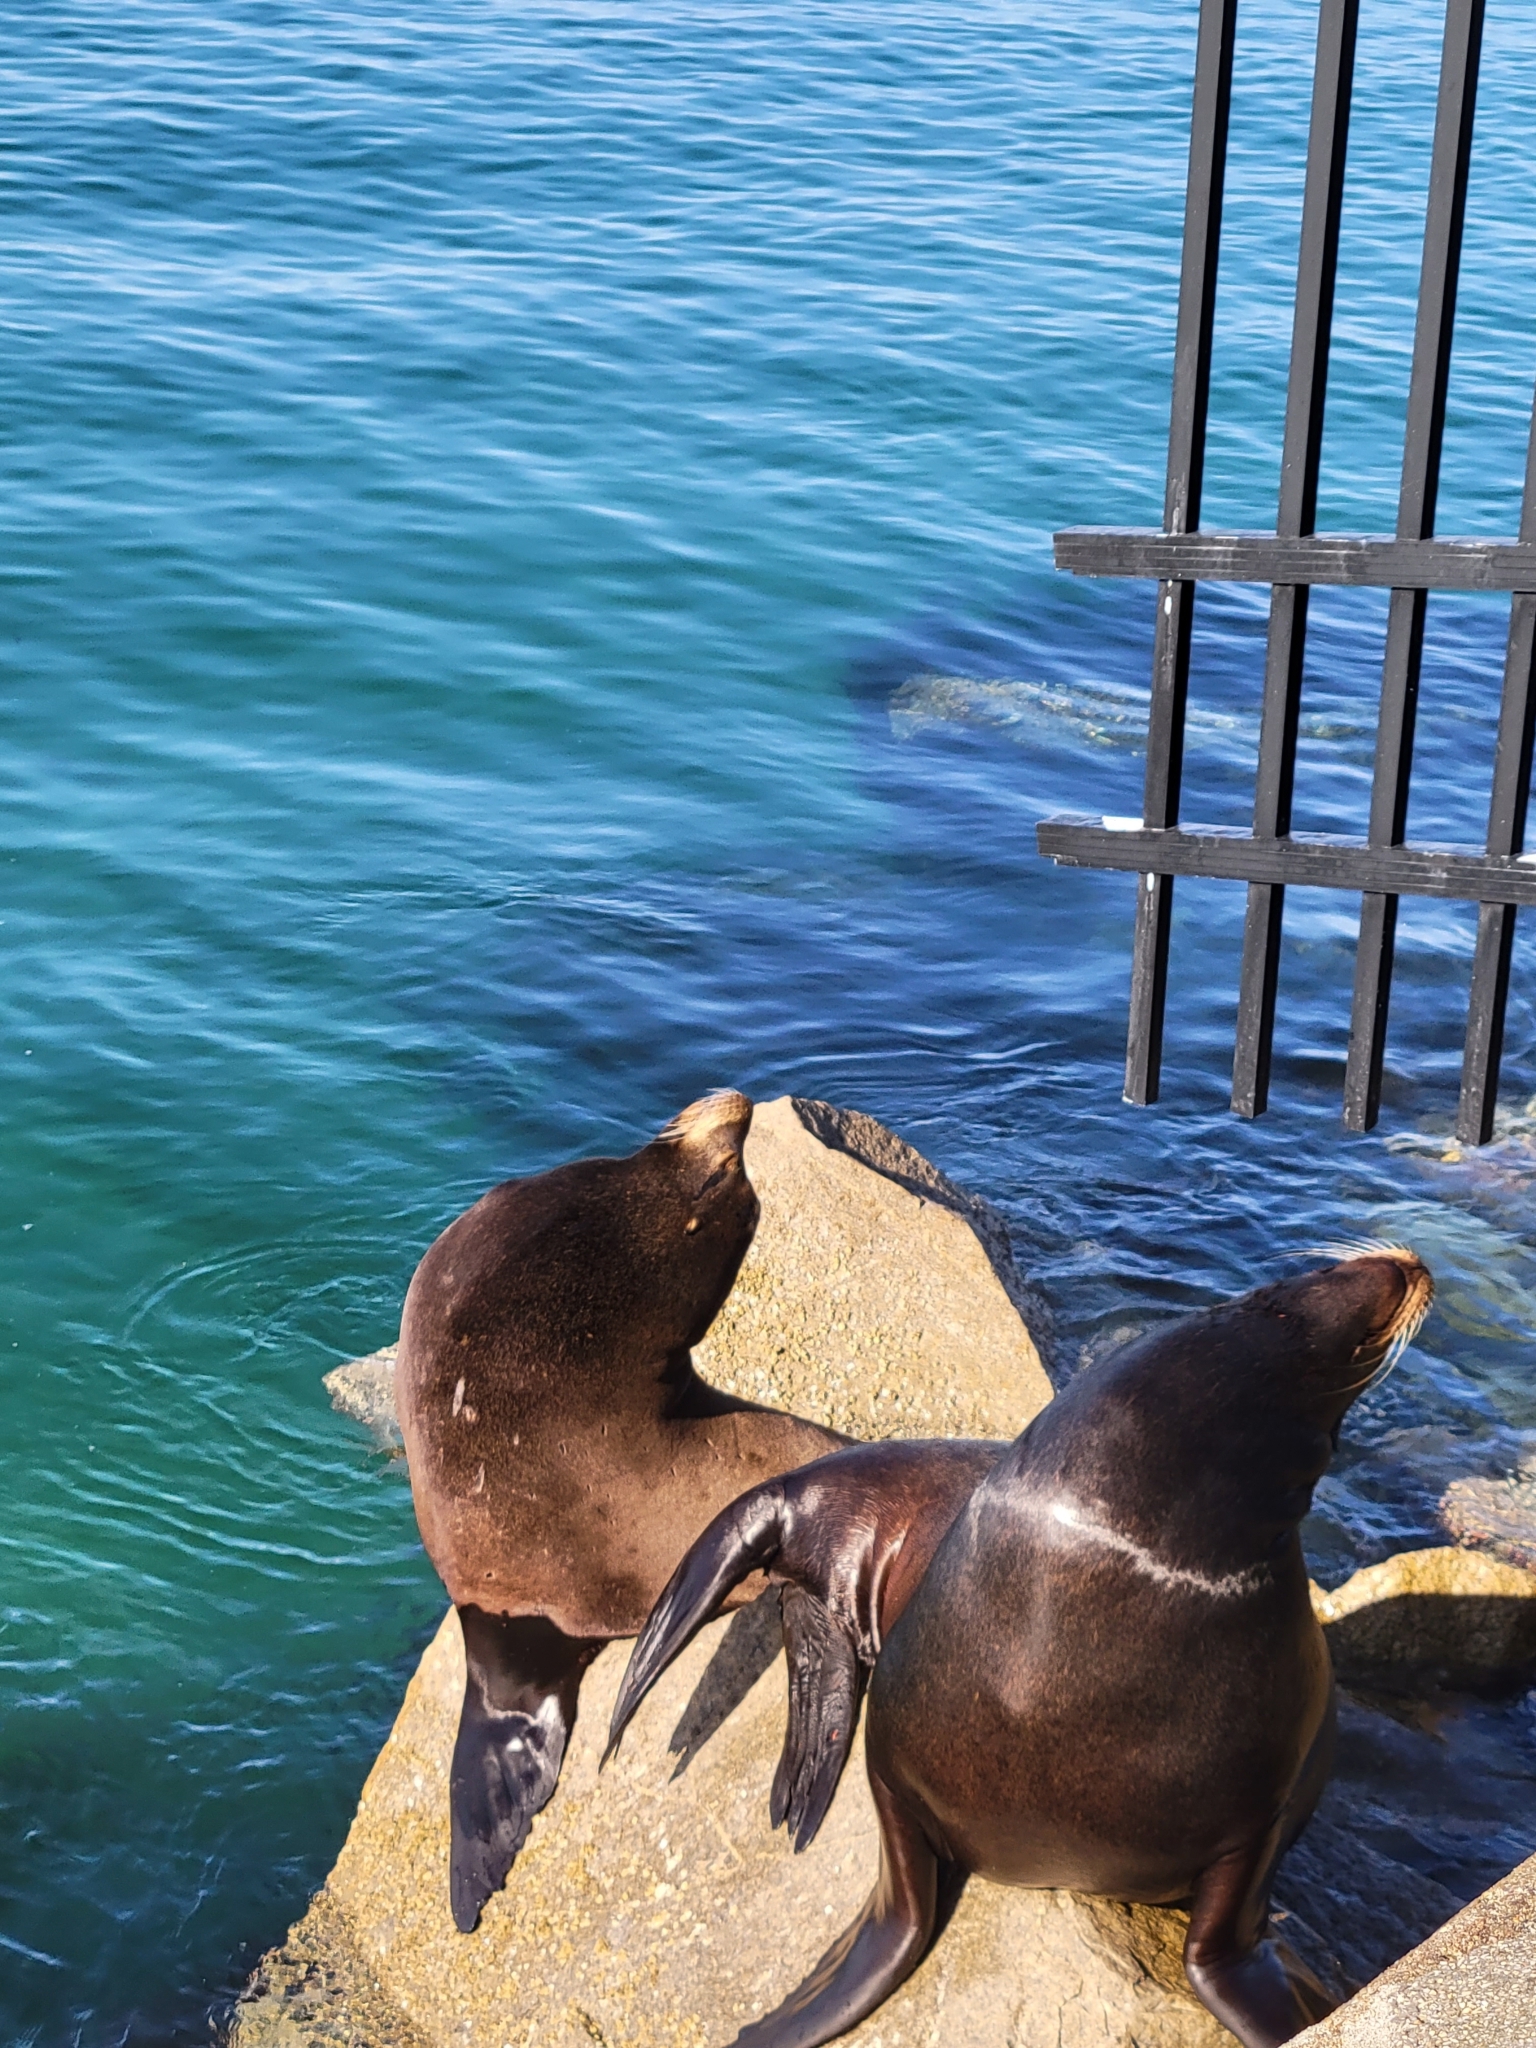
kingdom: Animalia
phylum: Chordata
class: Mammalia
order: Carnivora
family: Otariidae
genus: Zalophus
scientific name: Zalophus californianus
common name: California sea lion
